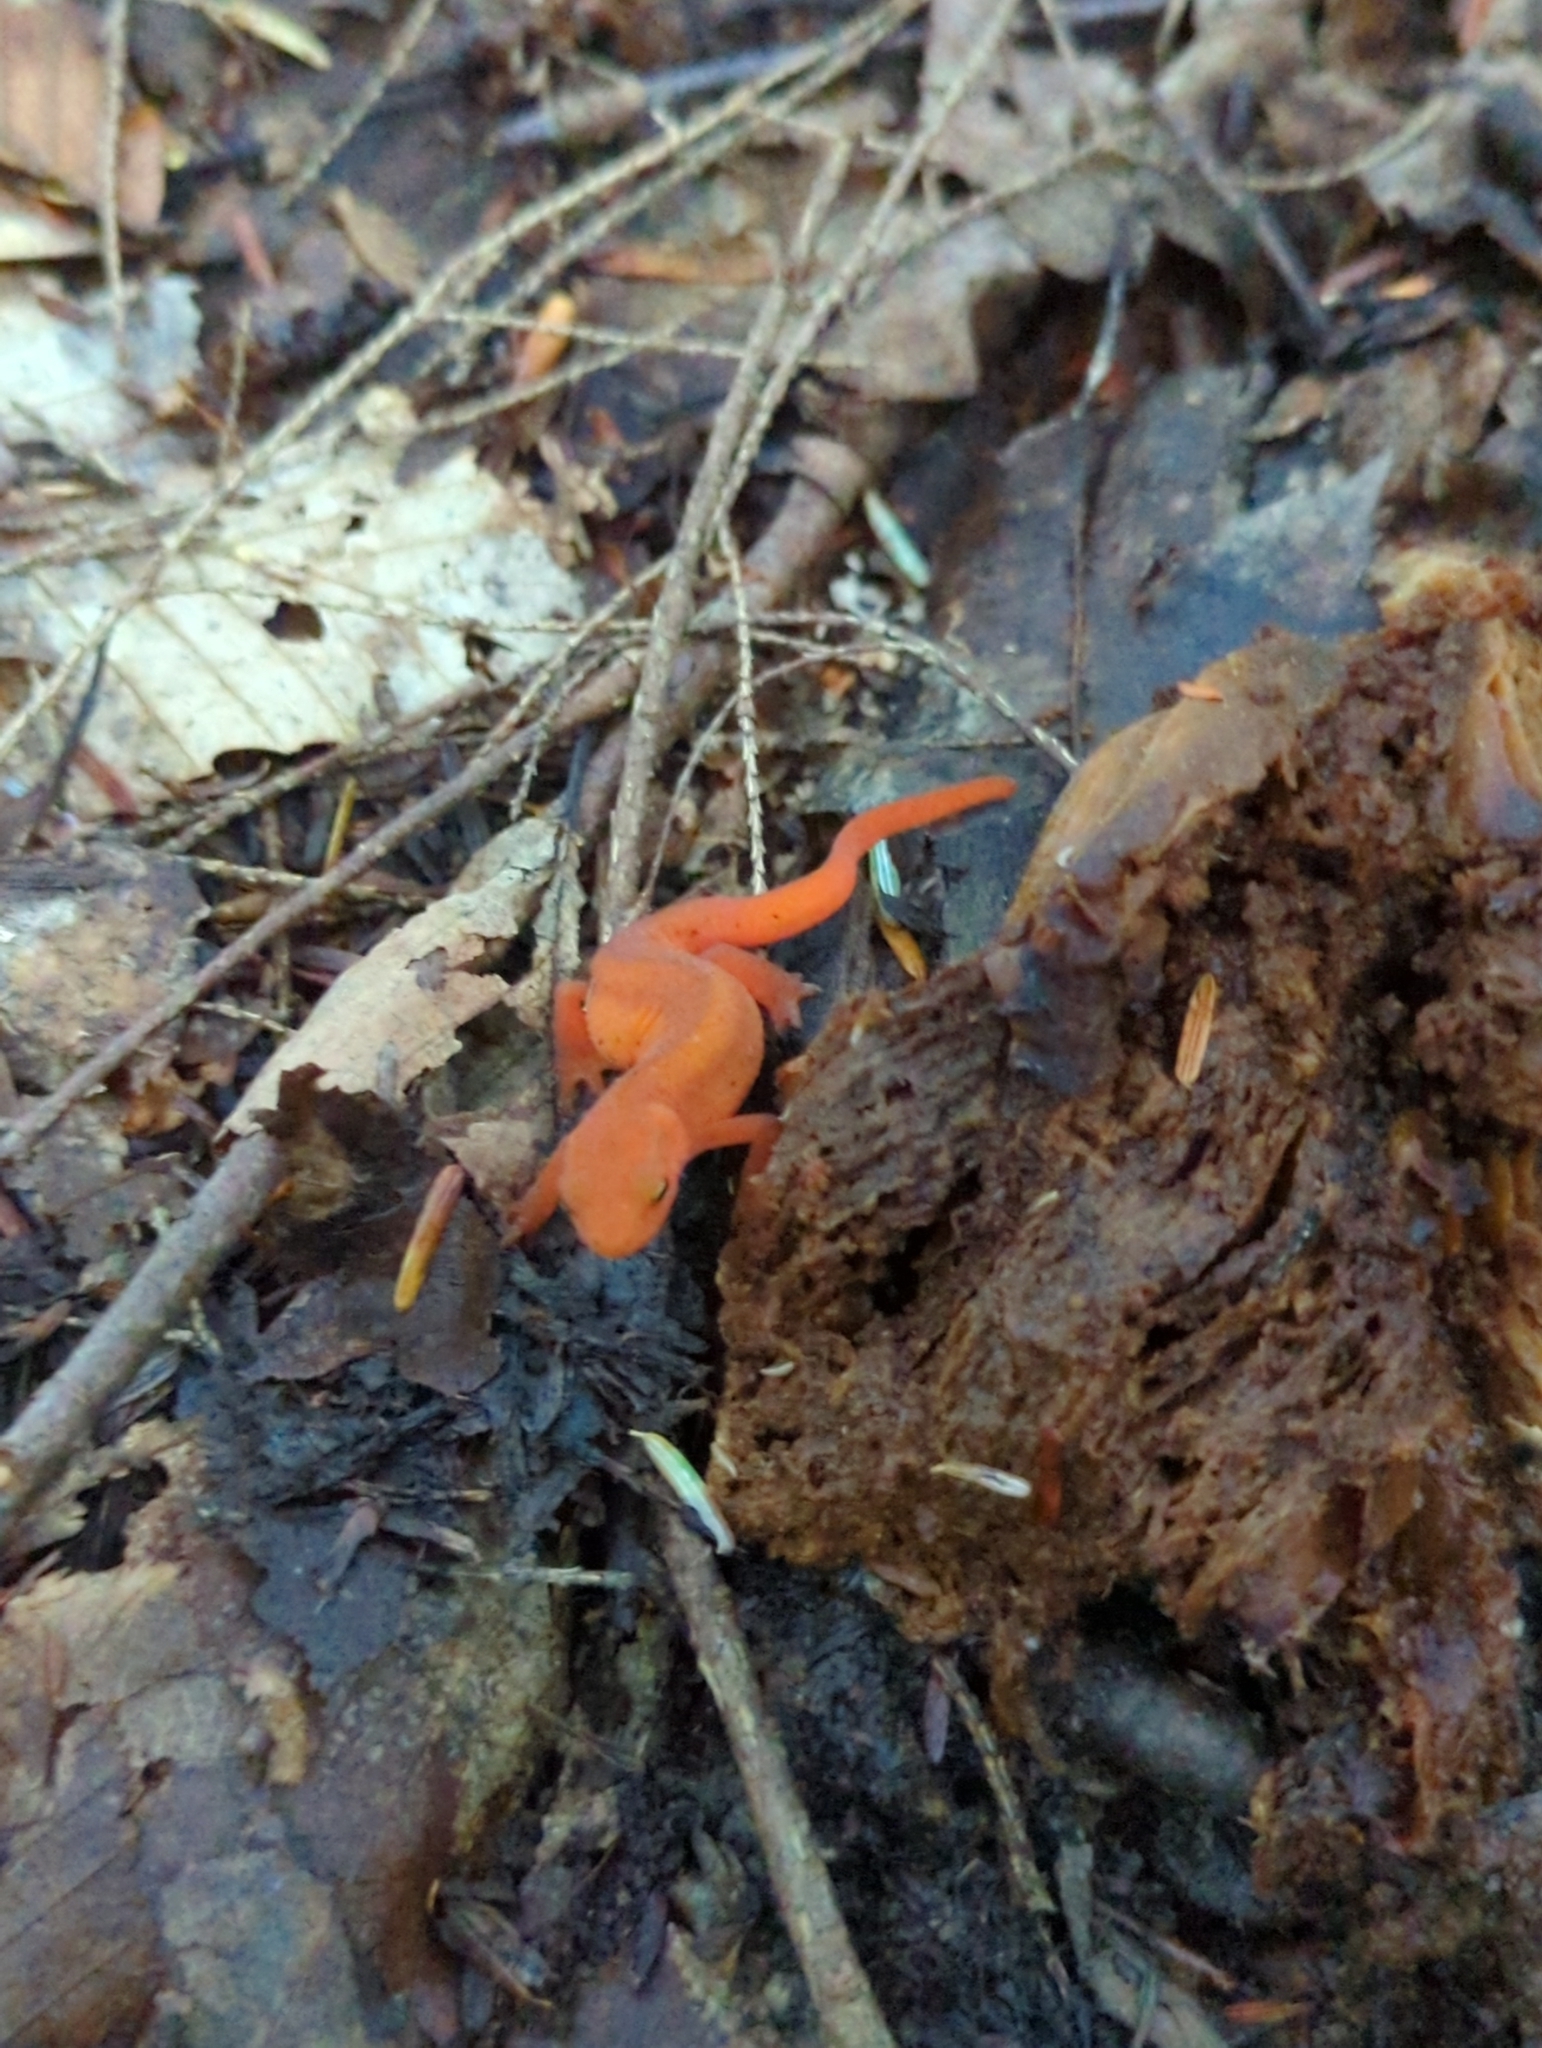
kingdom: Animalia
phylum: Chordata
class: Amphibia
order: Caudata
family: Salamandridae
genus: Notophthalmus
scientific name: Notophthalmus viridescens
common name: Eastern newt
